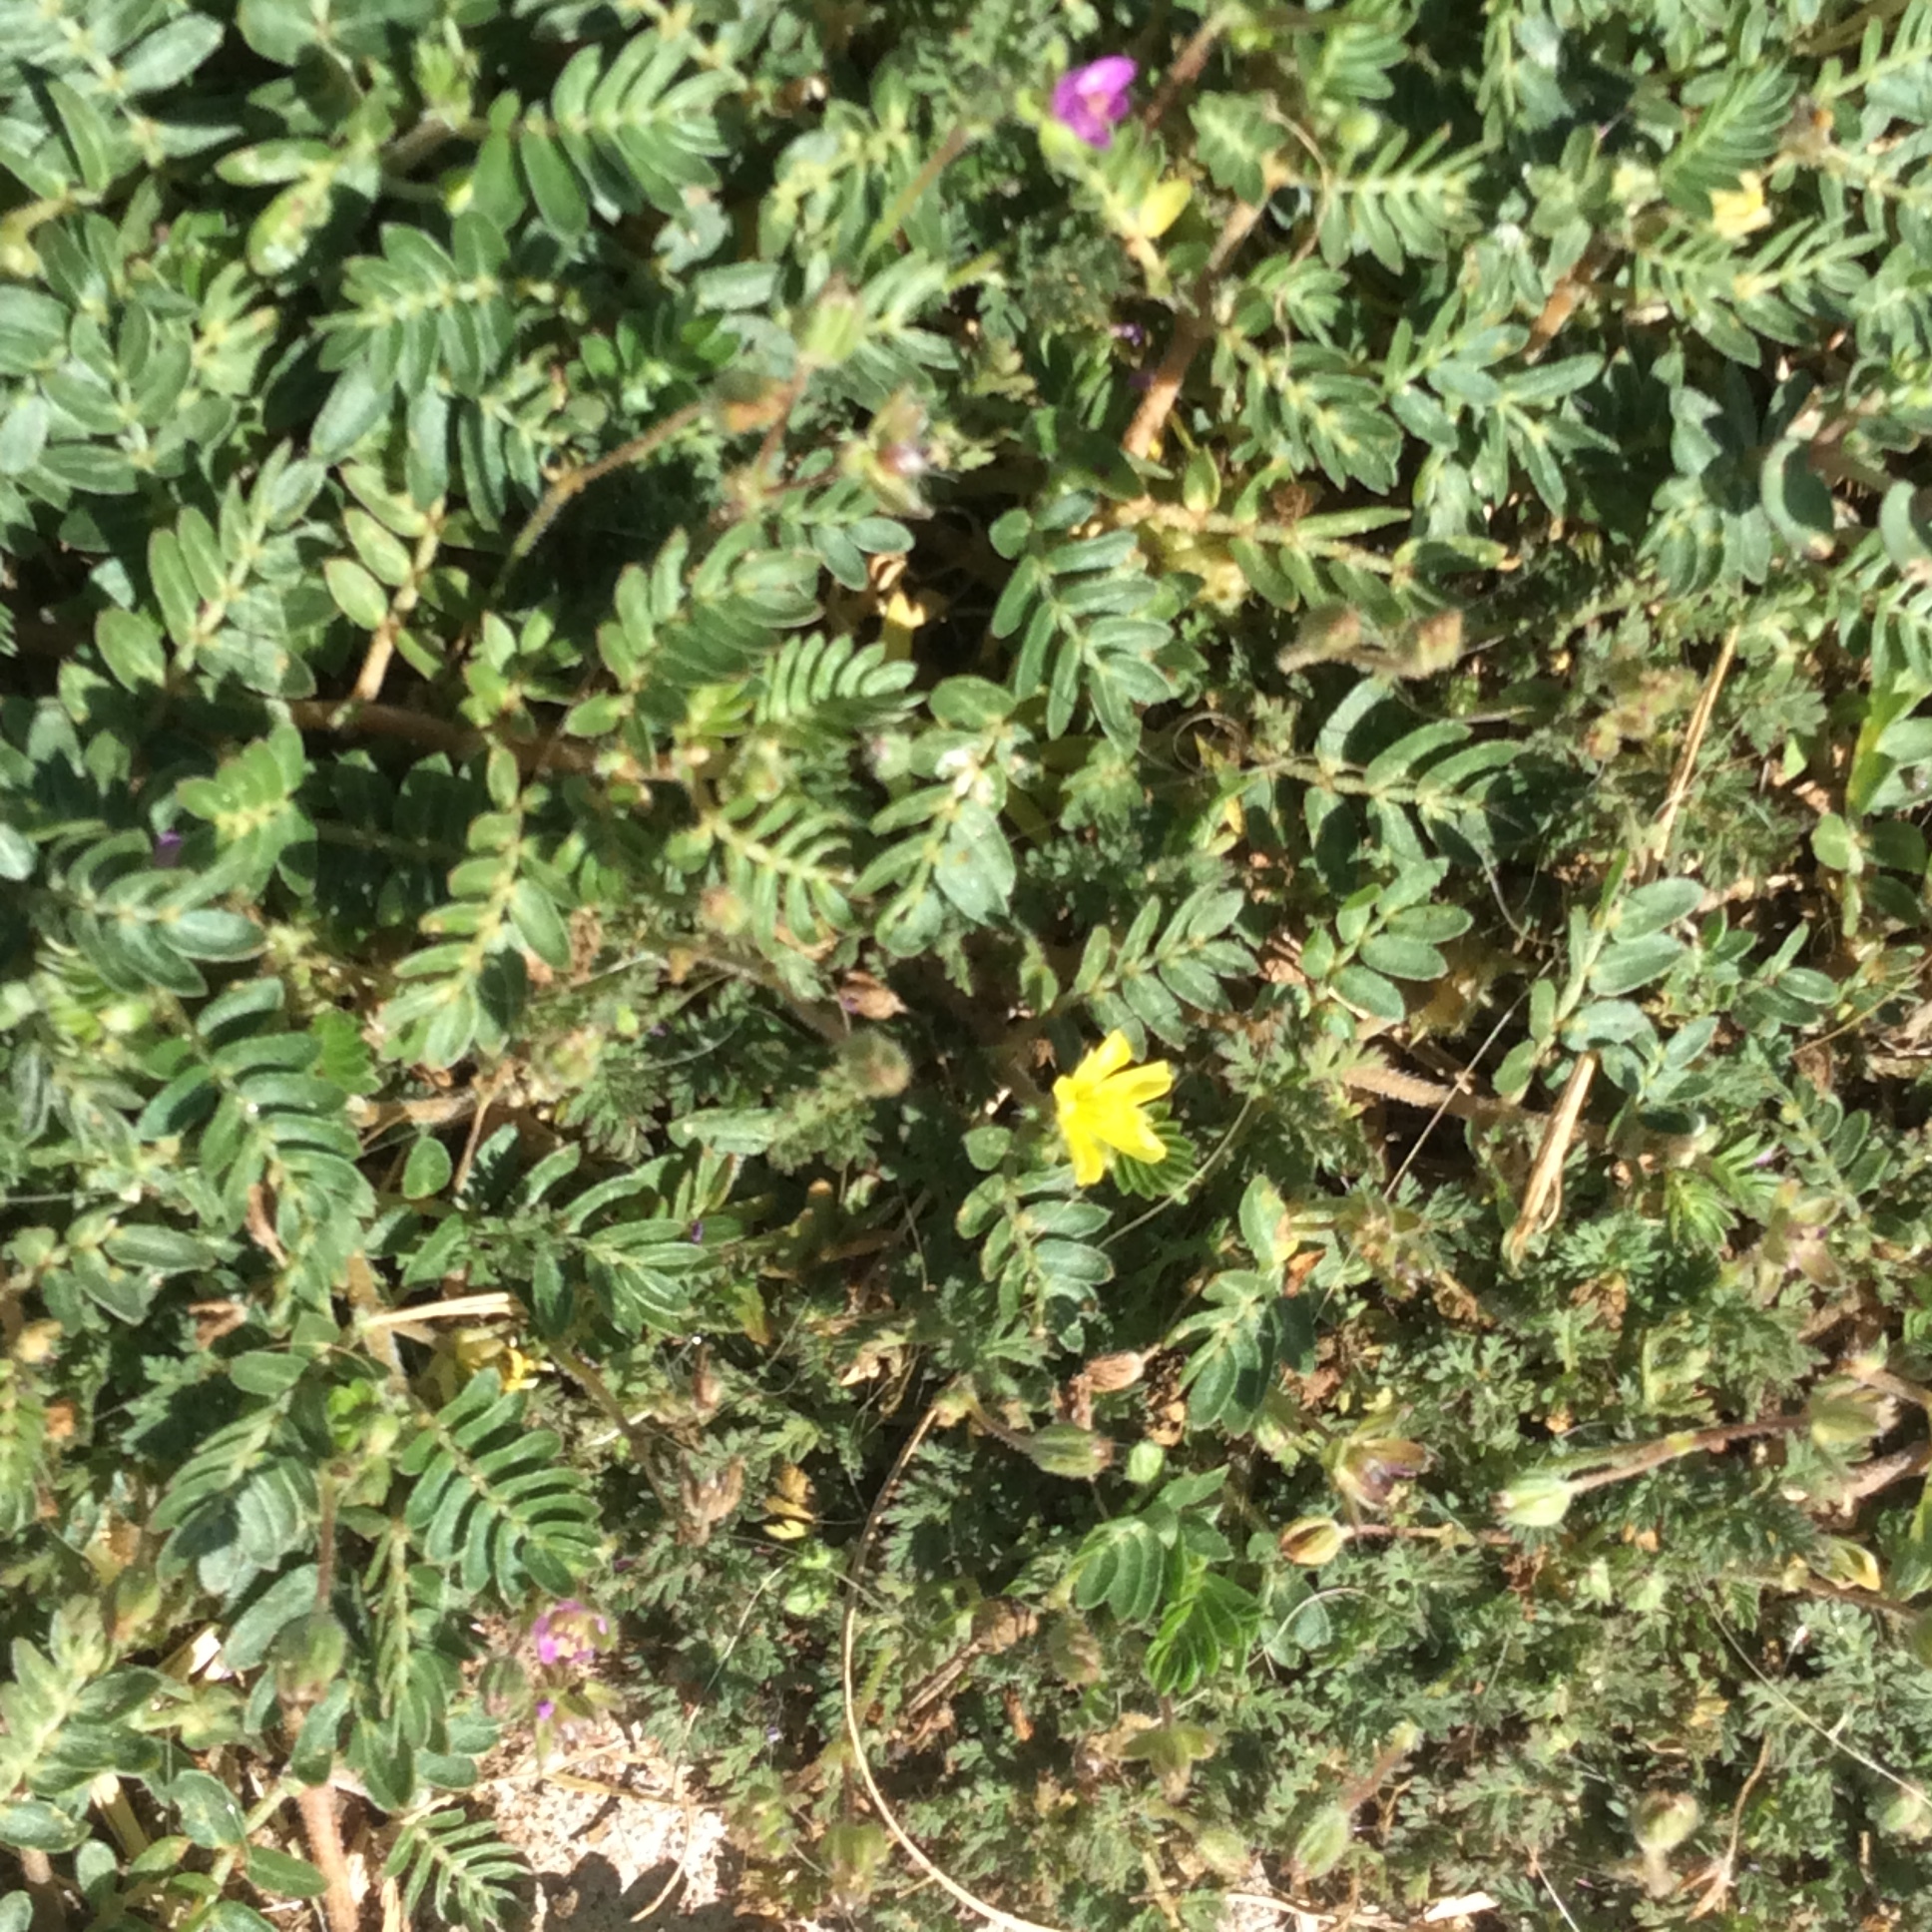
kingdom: Plantae
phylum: Tracheophyta
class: Magnoliopsida
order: Zygophyllales
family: Zygophyllaceae
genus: Tribulus
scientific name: Tribulus terrestris
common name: Puncturevine
